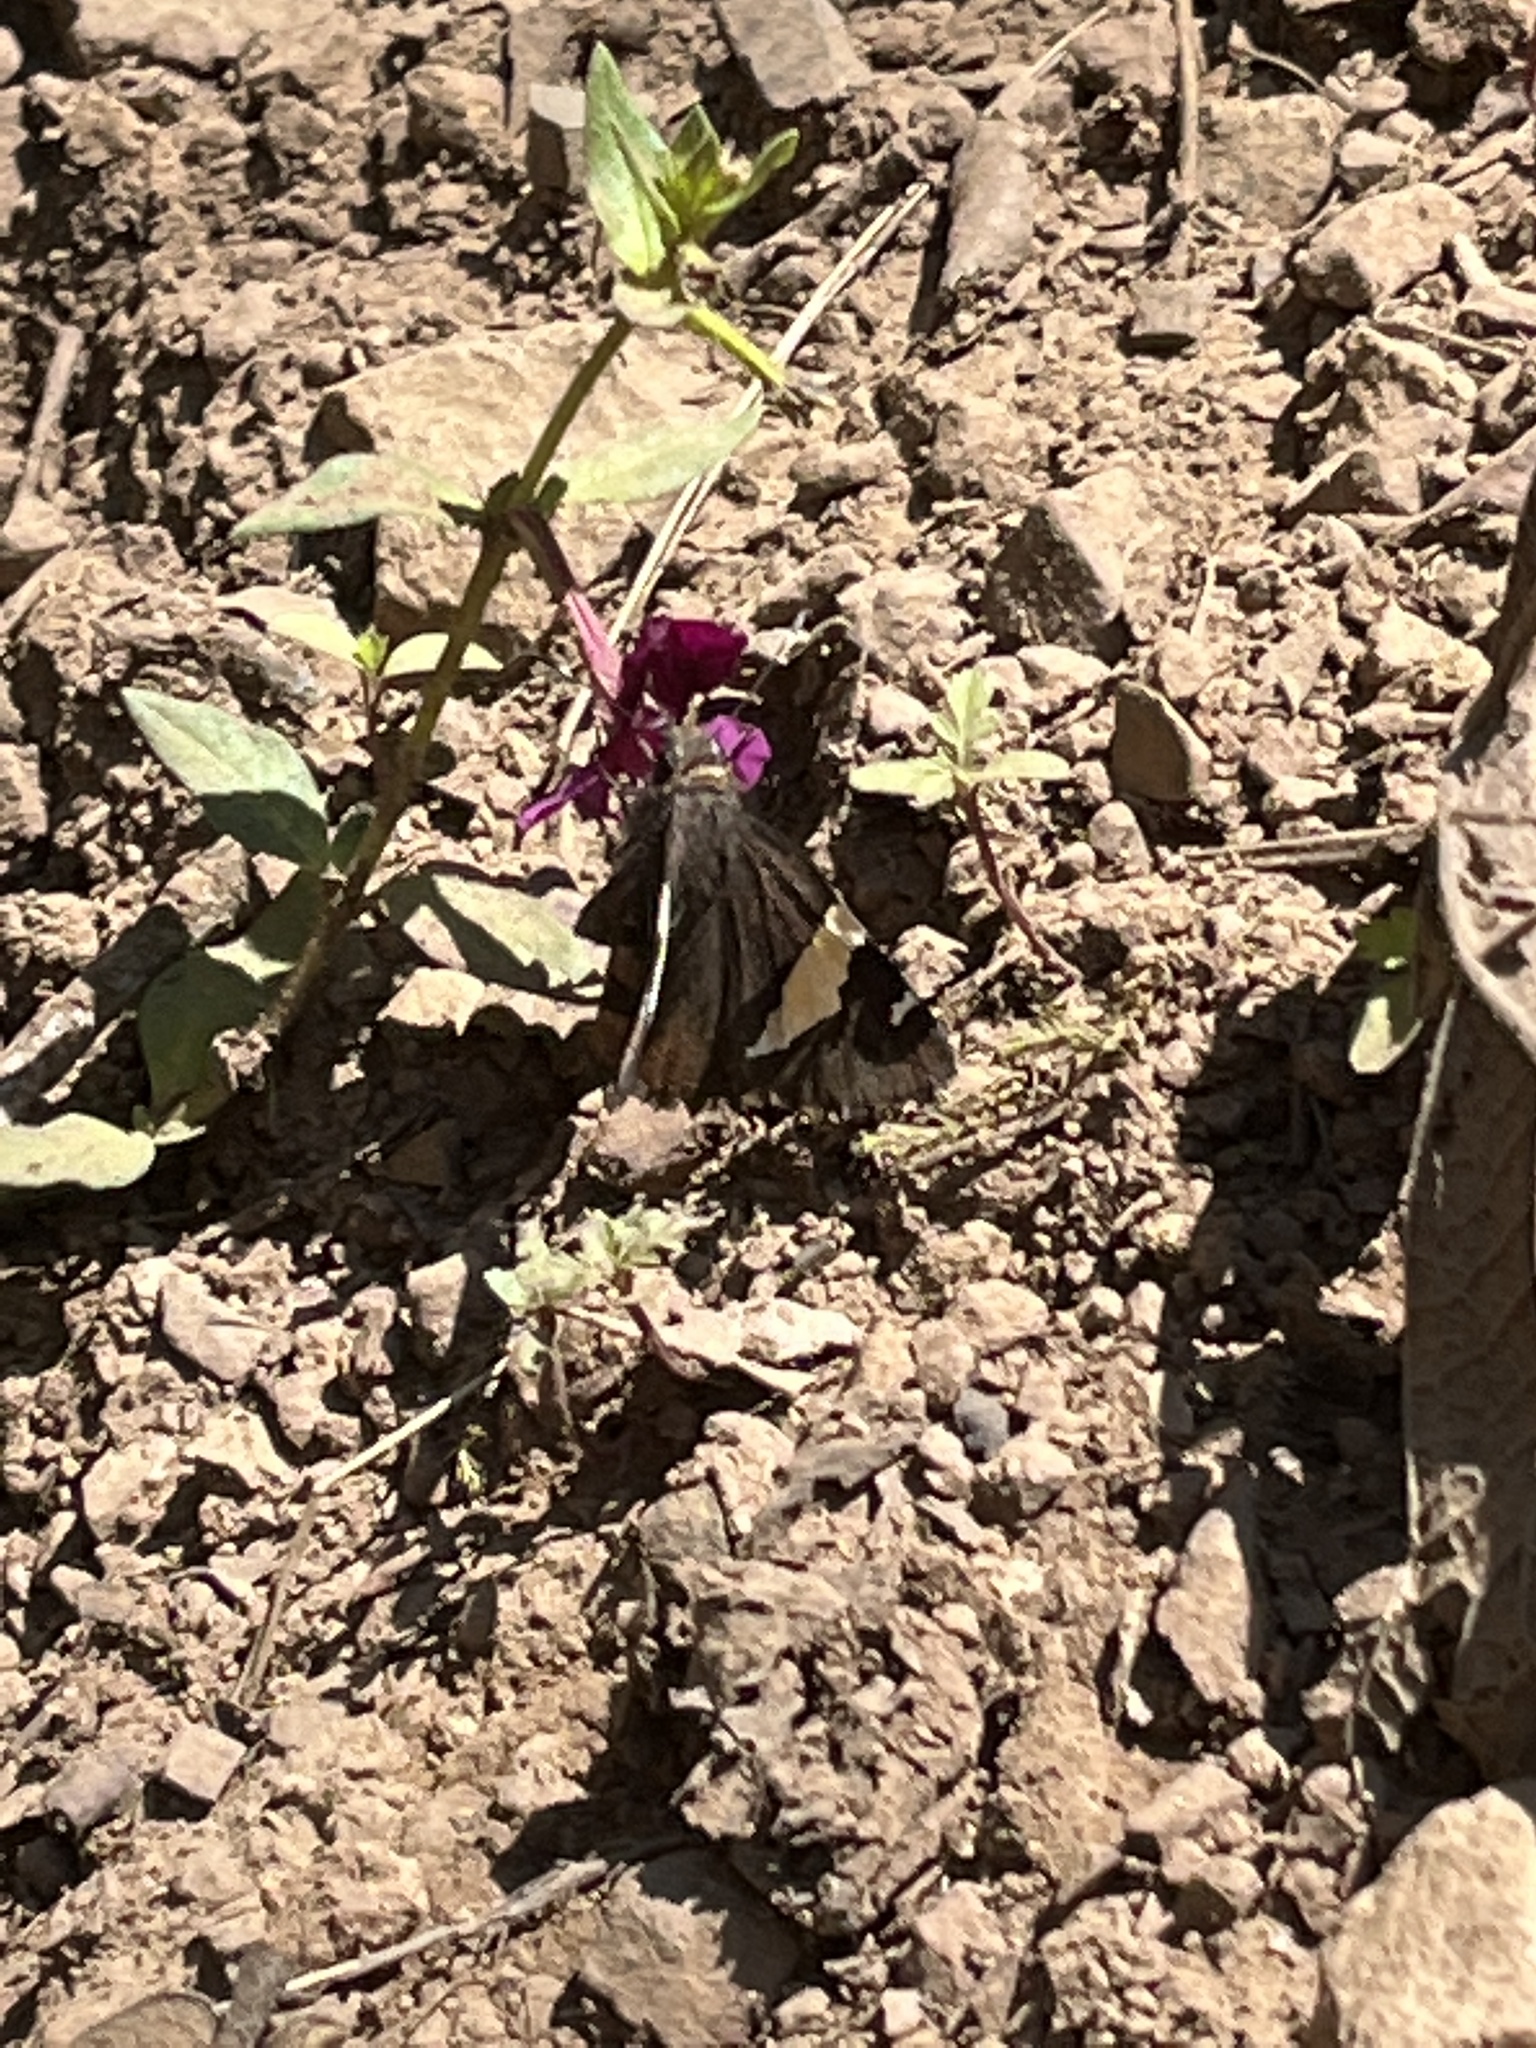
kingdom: Animalia
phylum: Arthropoda
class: Insecta
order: Lepidoptera
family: Hesperiidae
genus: Thorybes
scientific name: Thorybes pseudocellus
